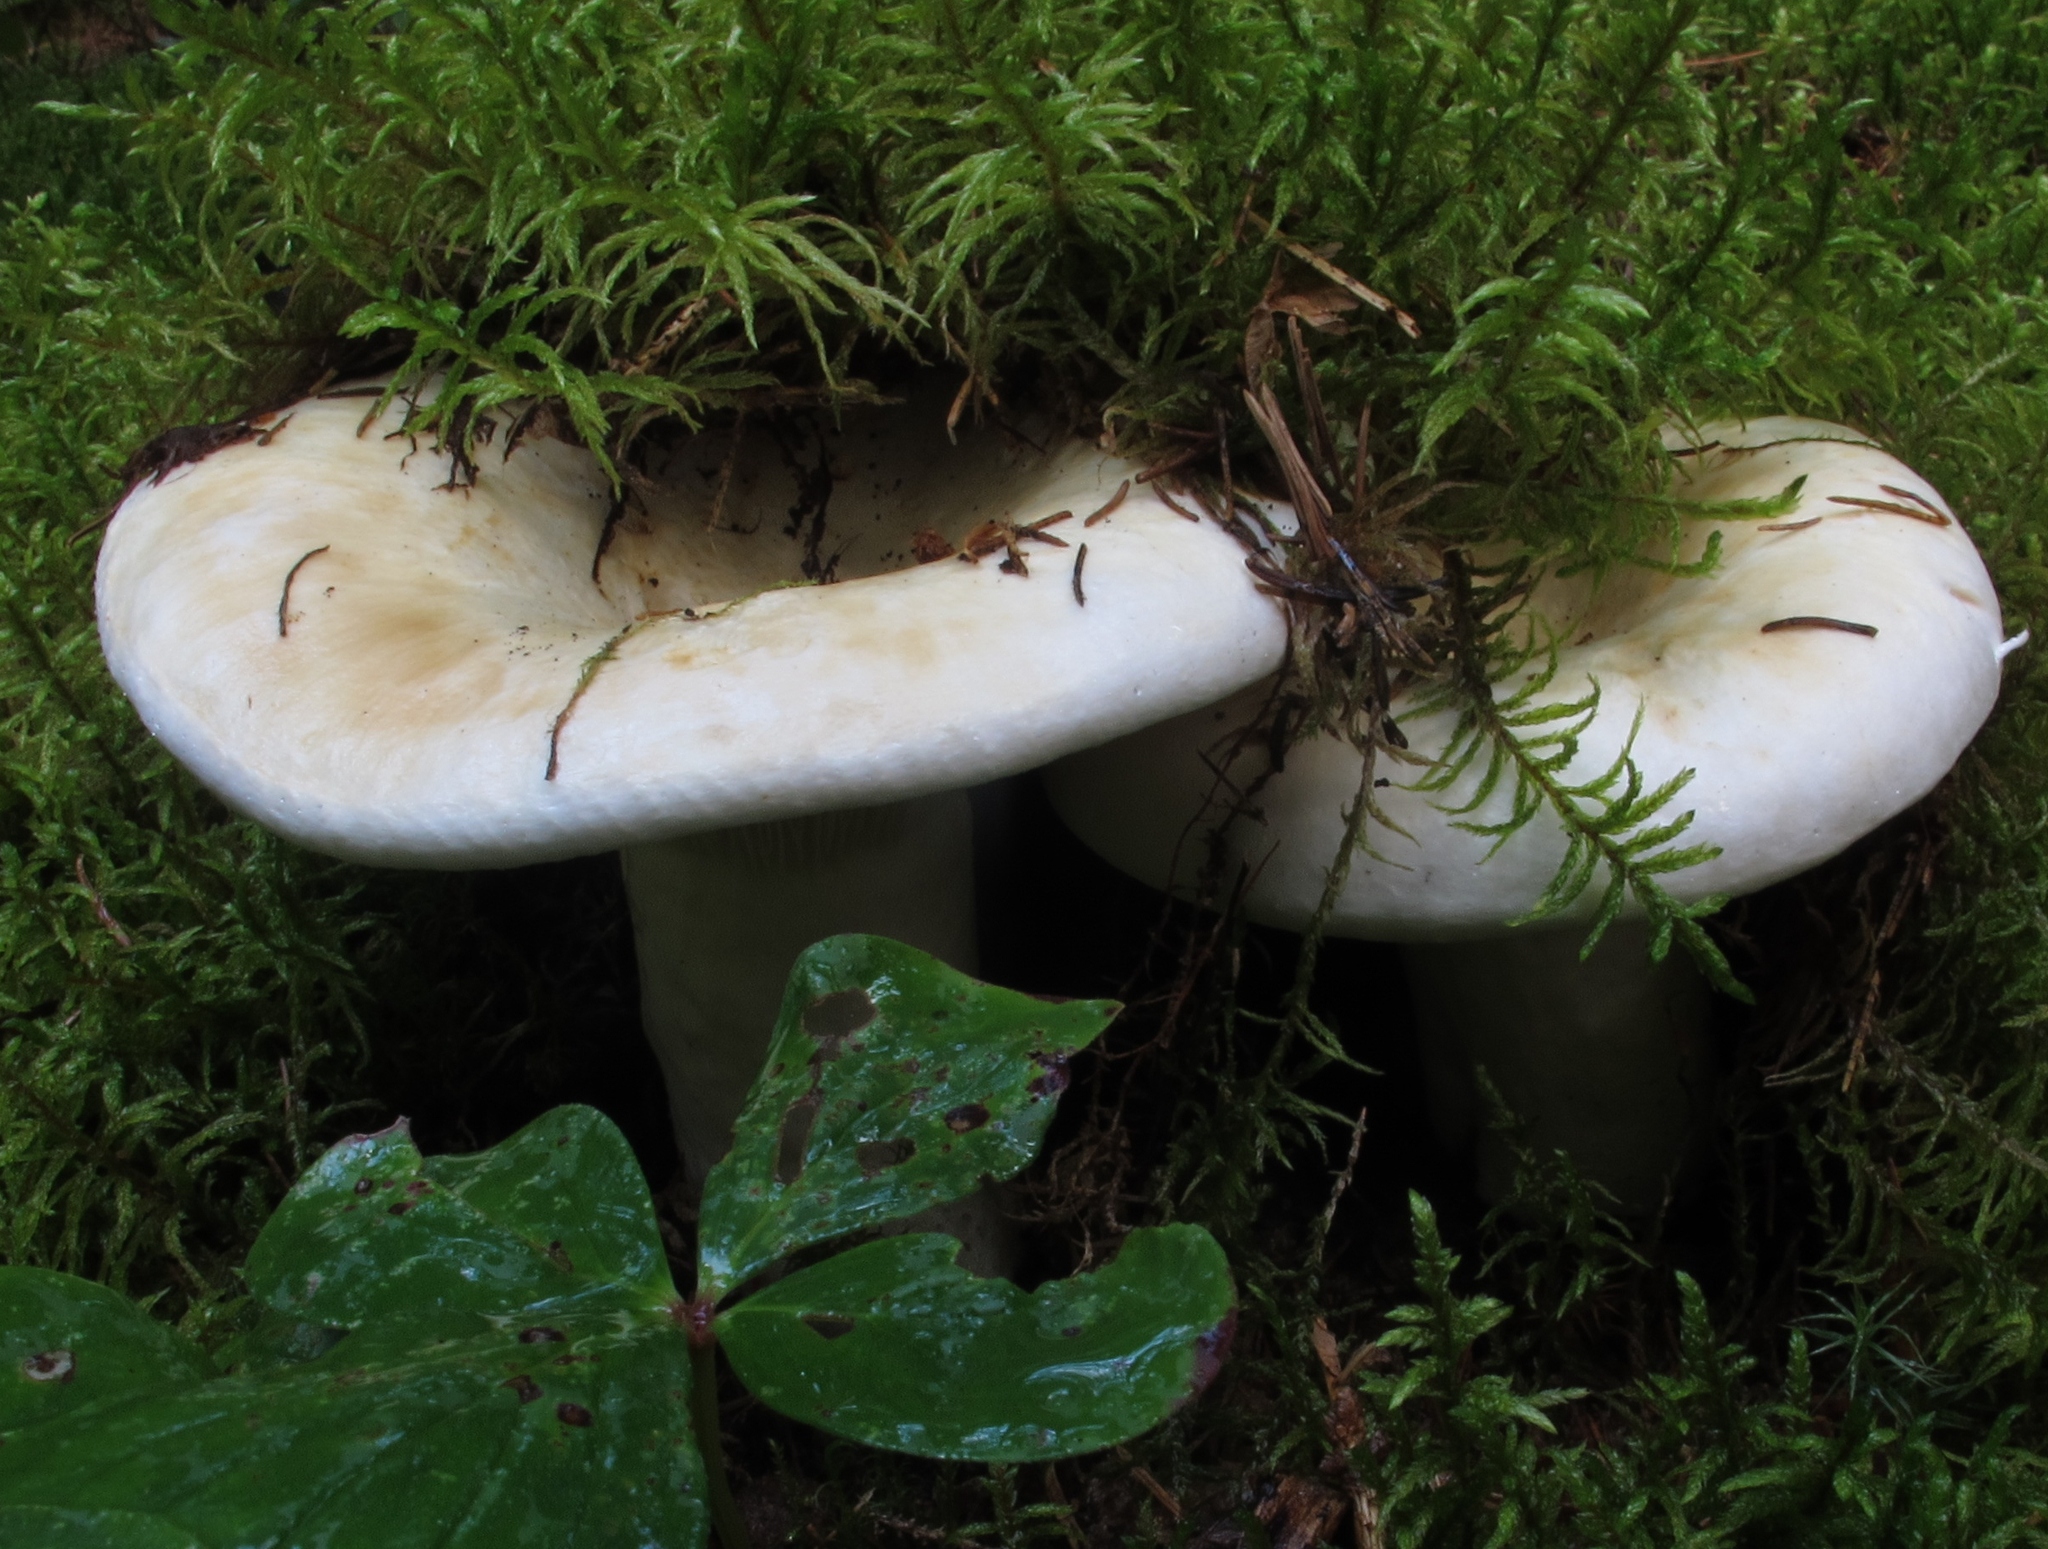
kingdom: Fungi
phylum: Basidiomycota
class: Agaricomycetes
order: Russulales
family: Russulaceae
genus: Lactifluus
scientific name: Lactifluus
